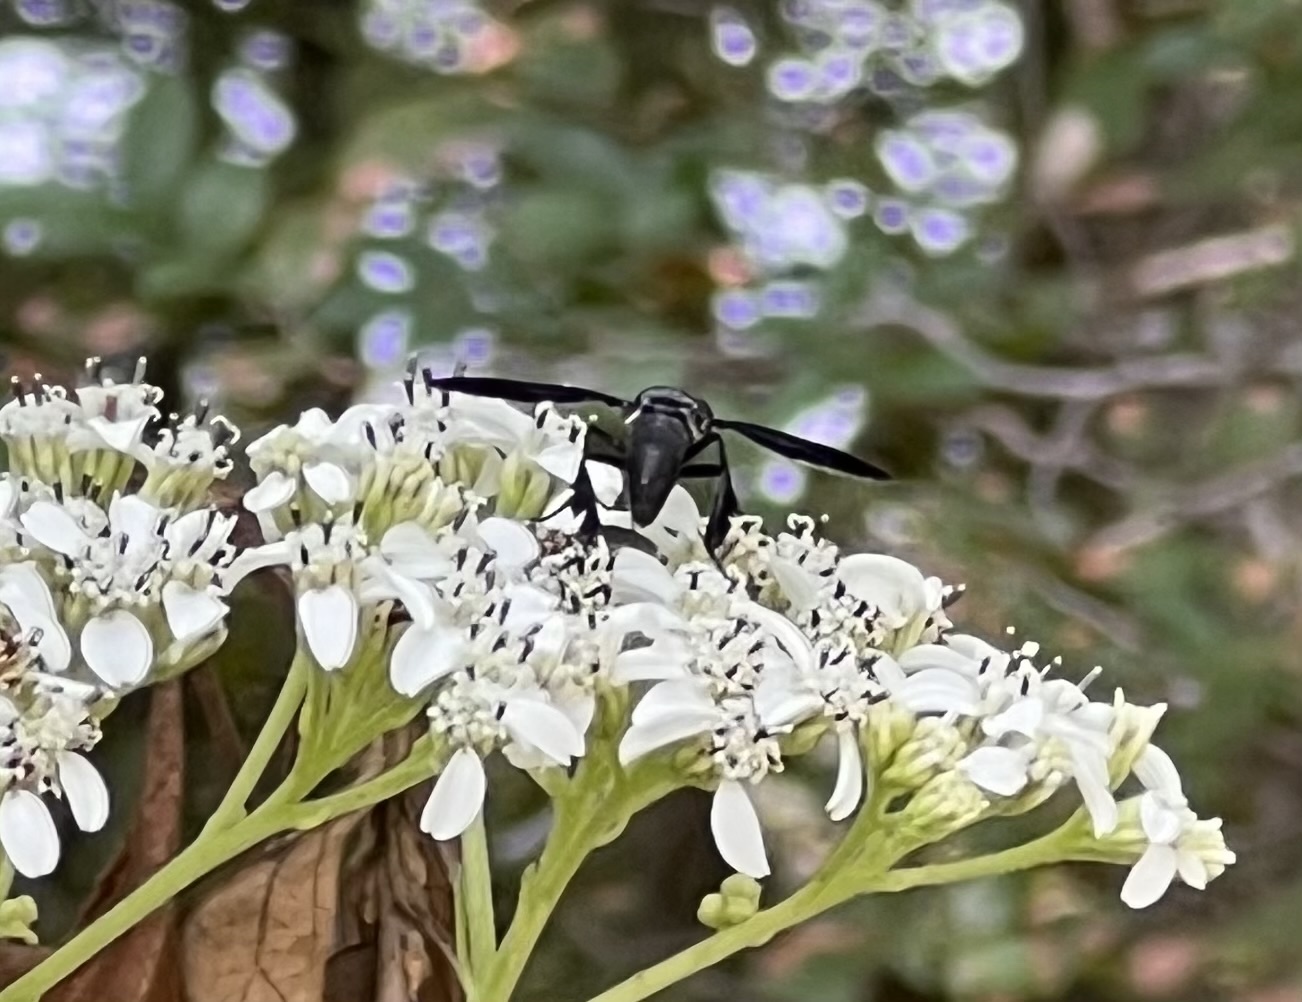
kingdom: Animalia
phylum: Arthropoda
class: Insecta
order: Diptera
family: Tachinidae
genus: Trichopoda
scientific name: Trichopoda lanipes
